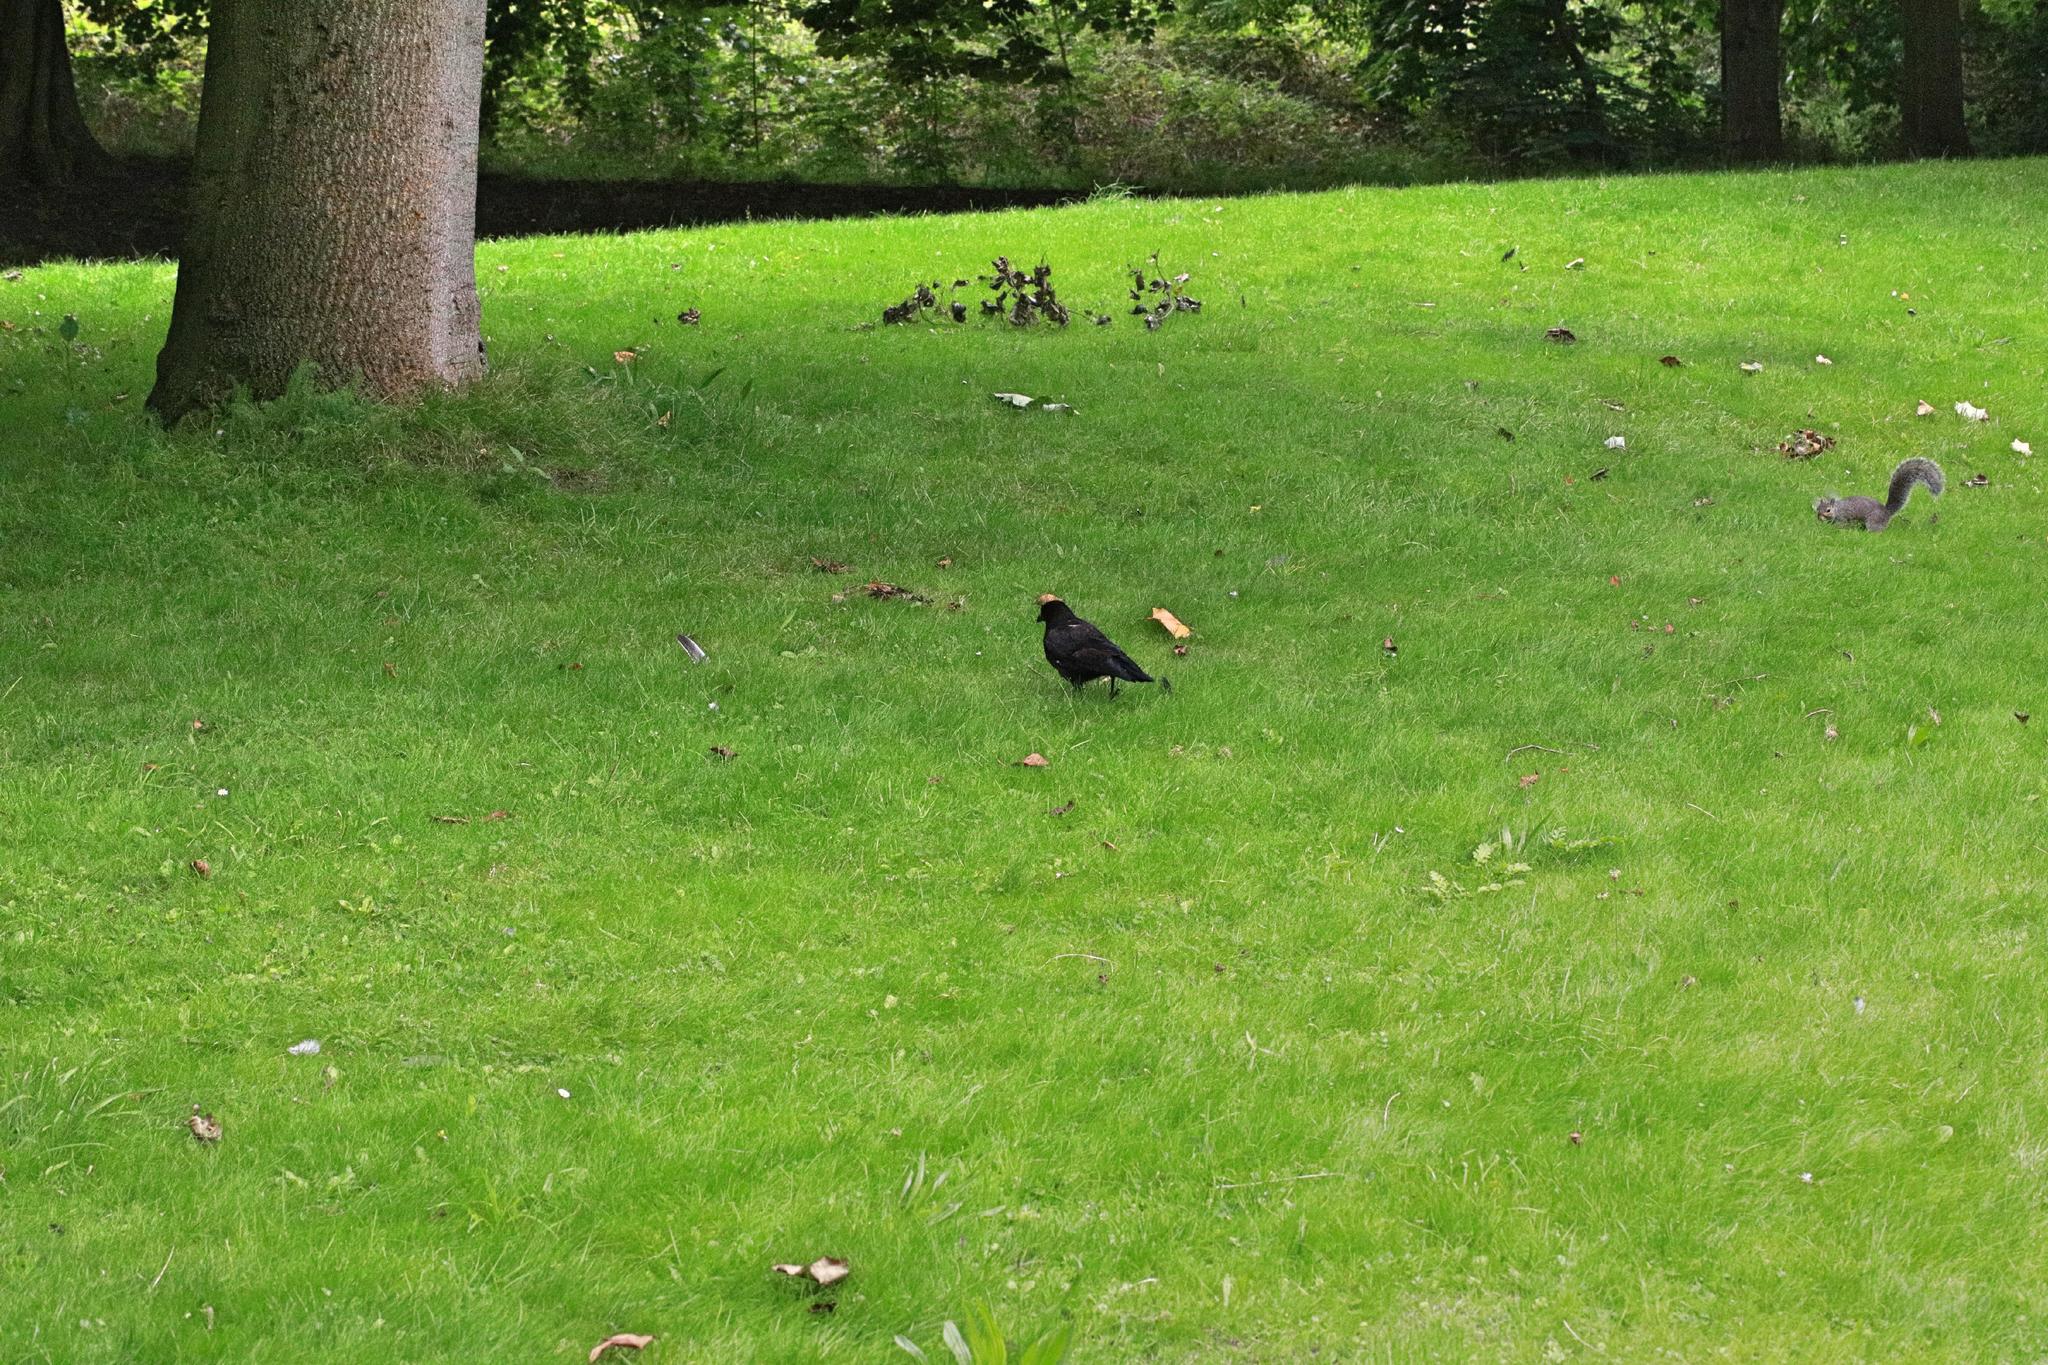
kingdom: Animalia
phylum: Chordata
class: Aves
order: Passeriformes
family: Corvidae
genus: Corvus
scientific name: Corvus corone
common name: Carrion crow
